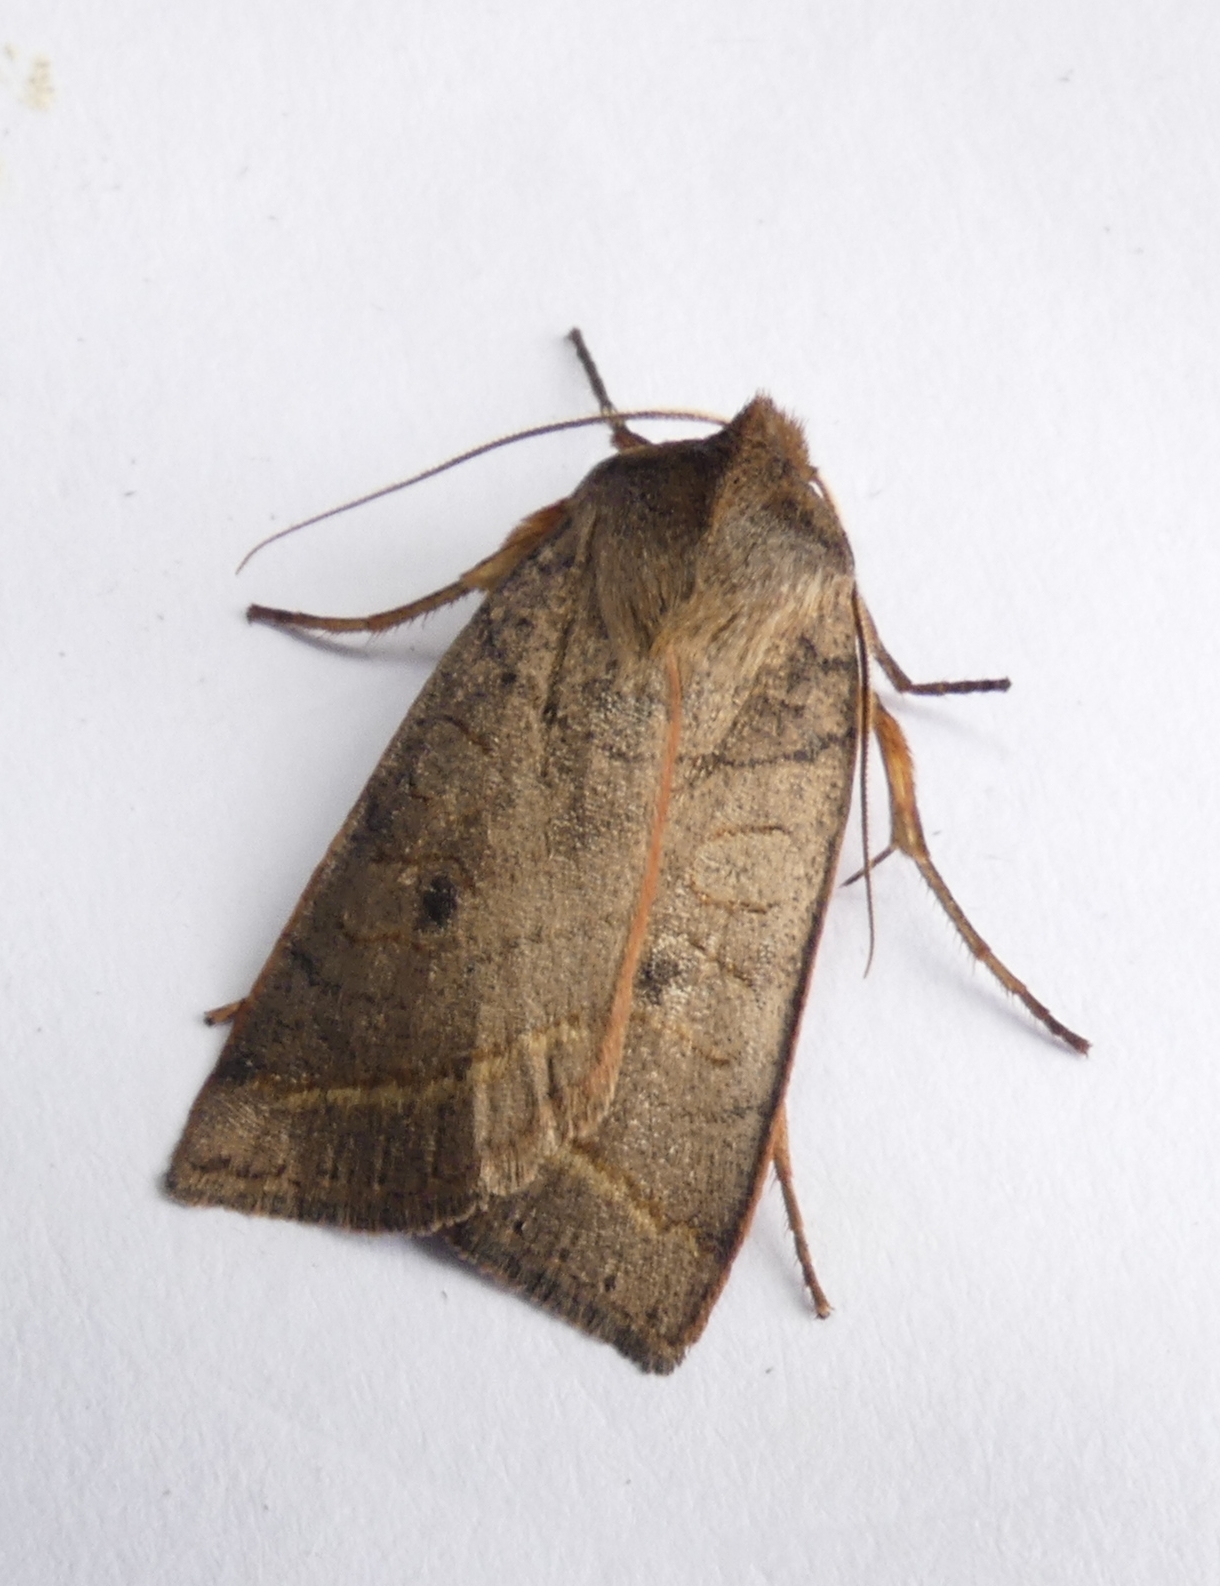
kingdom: Animalia
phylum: Arthropoda
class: Insecta
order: Lepidoptera
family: Noctuidae
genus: Epiglaea
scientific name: Epiglaea apiata
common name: Pointed sallow
